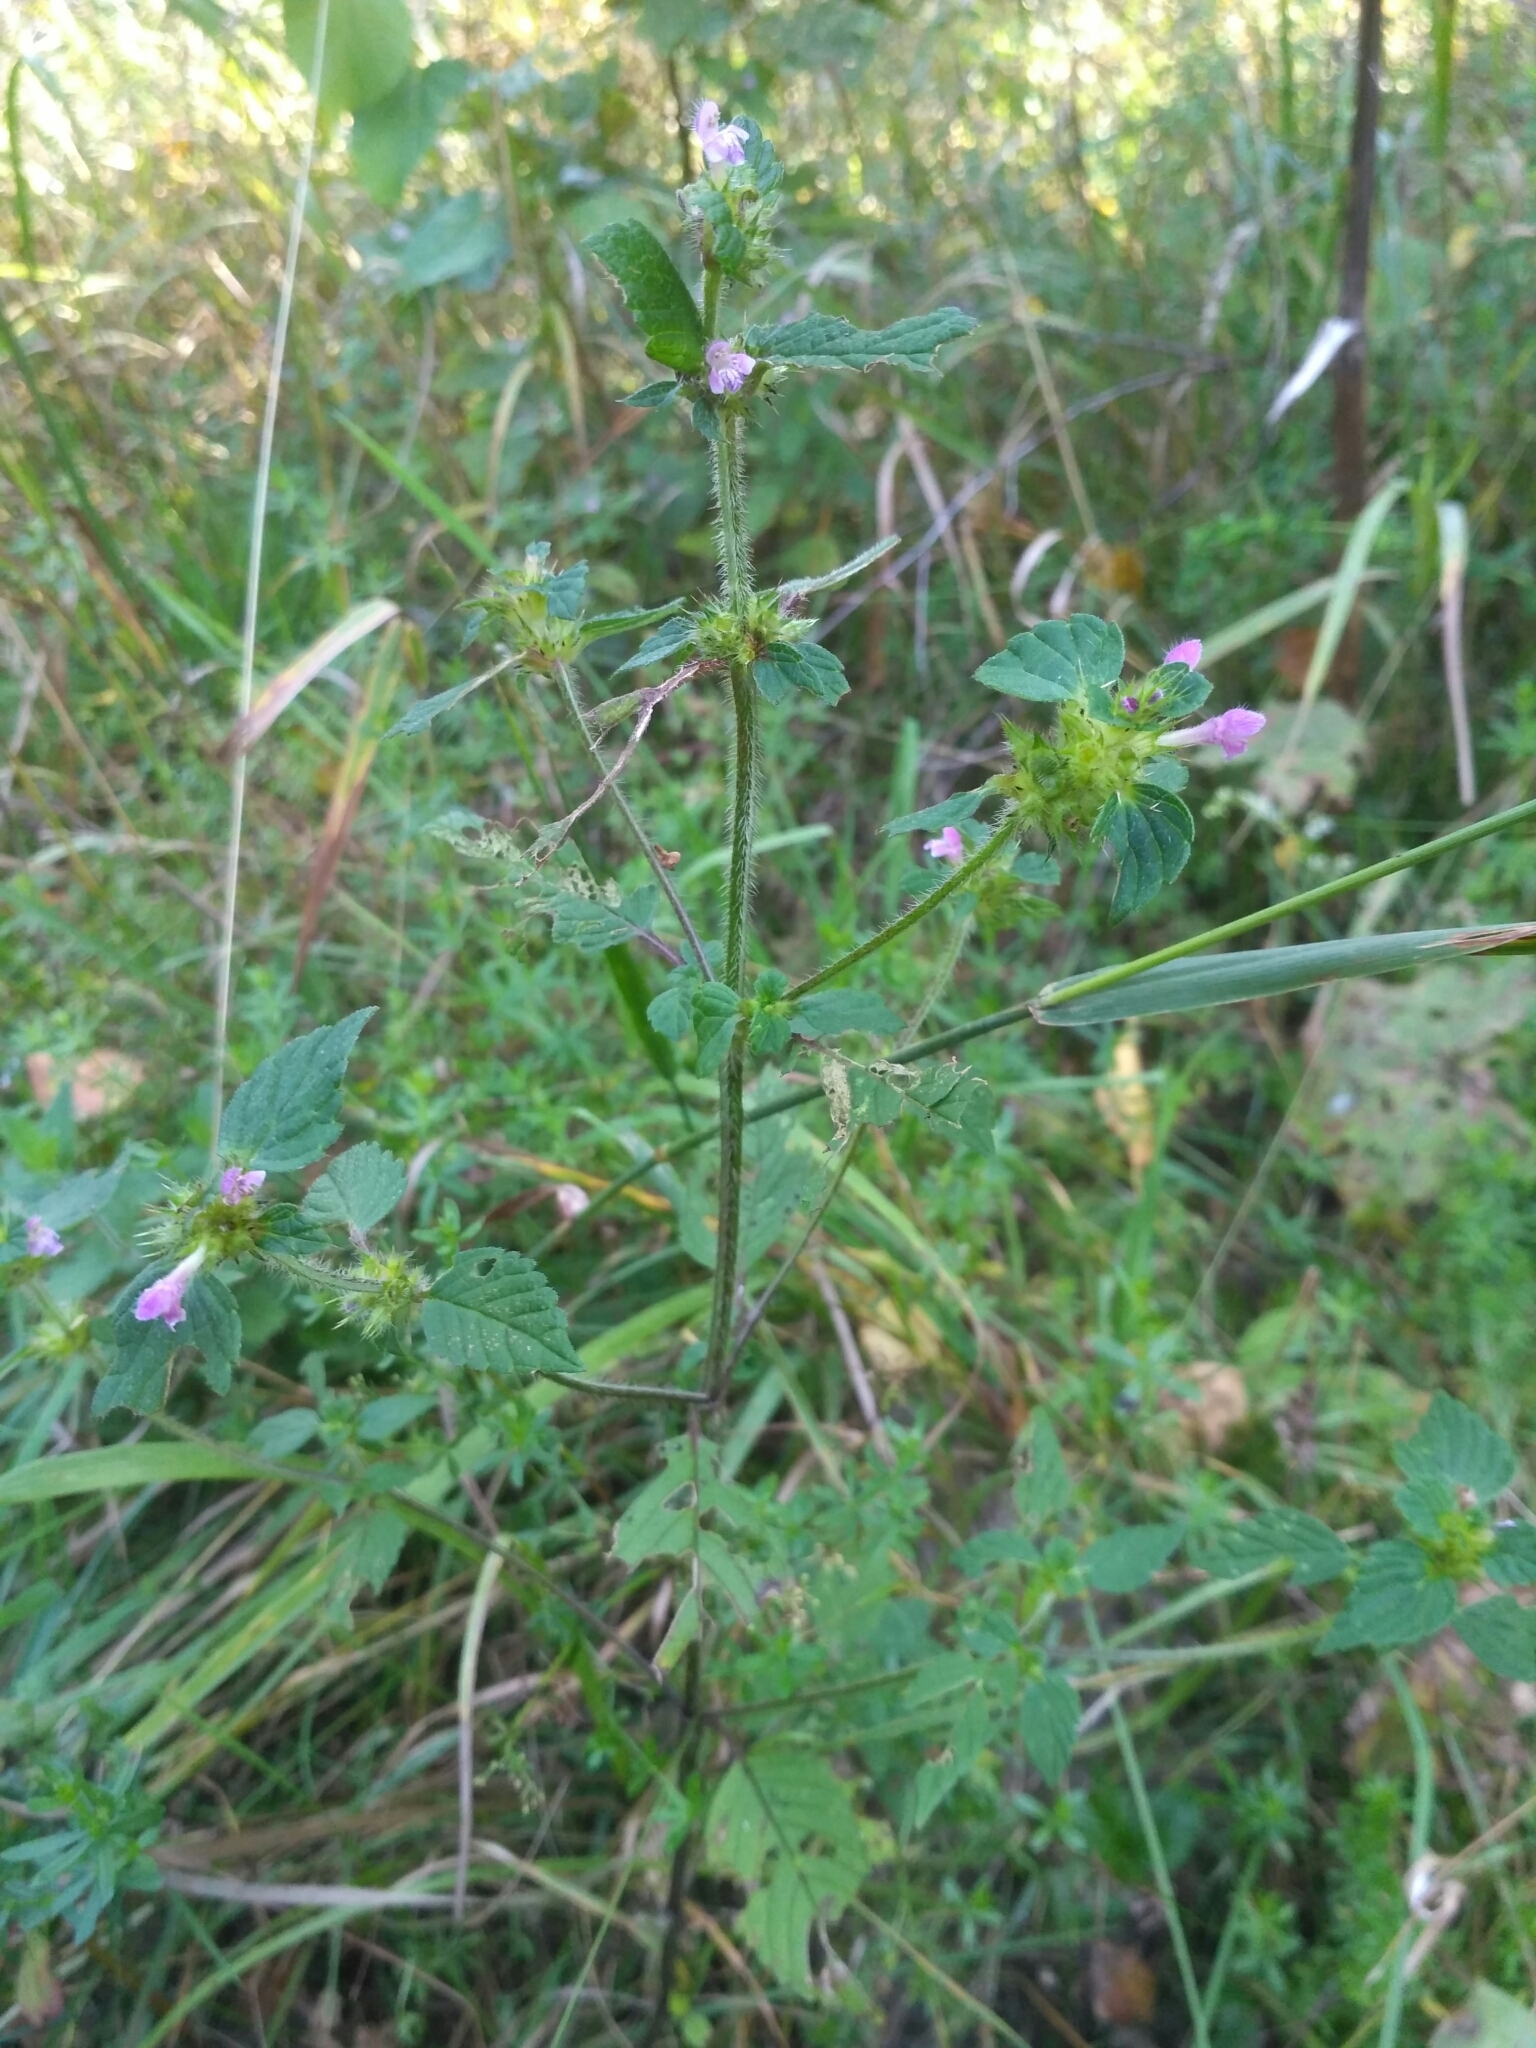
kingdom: Plantae
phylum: Tracheophyta
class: Magnoliopsida
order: Lamiales
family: Lamiaceae
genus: Galeopsis
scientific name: Galeopsis bifida
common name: Bifid hemp-nettle
